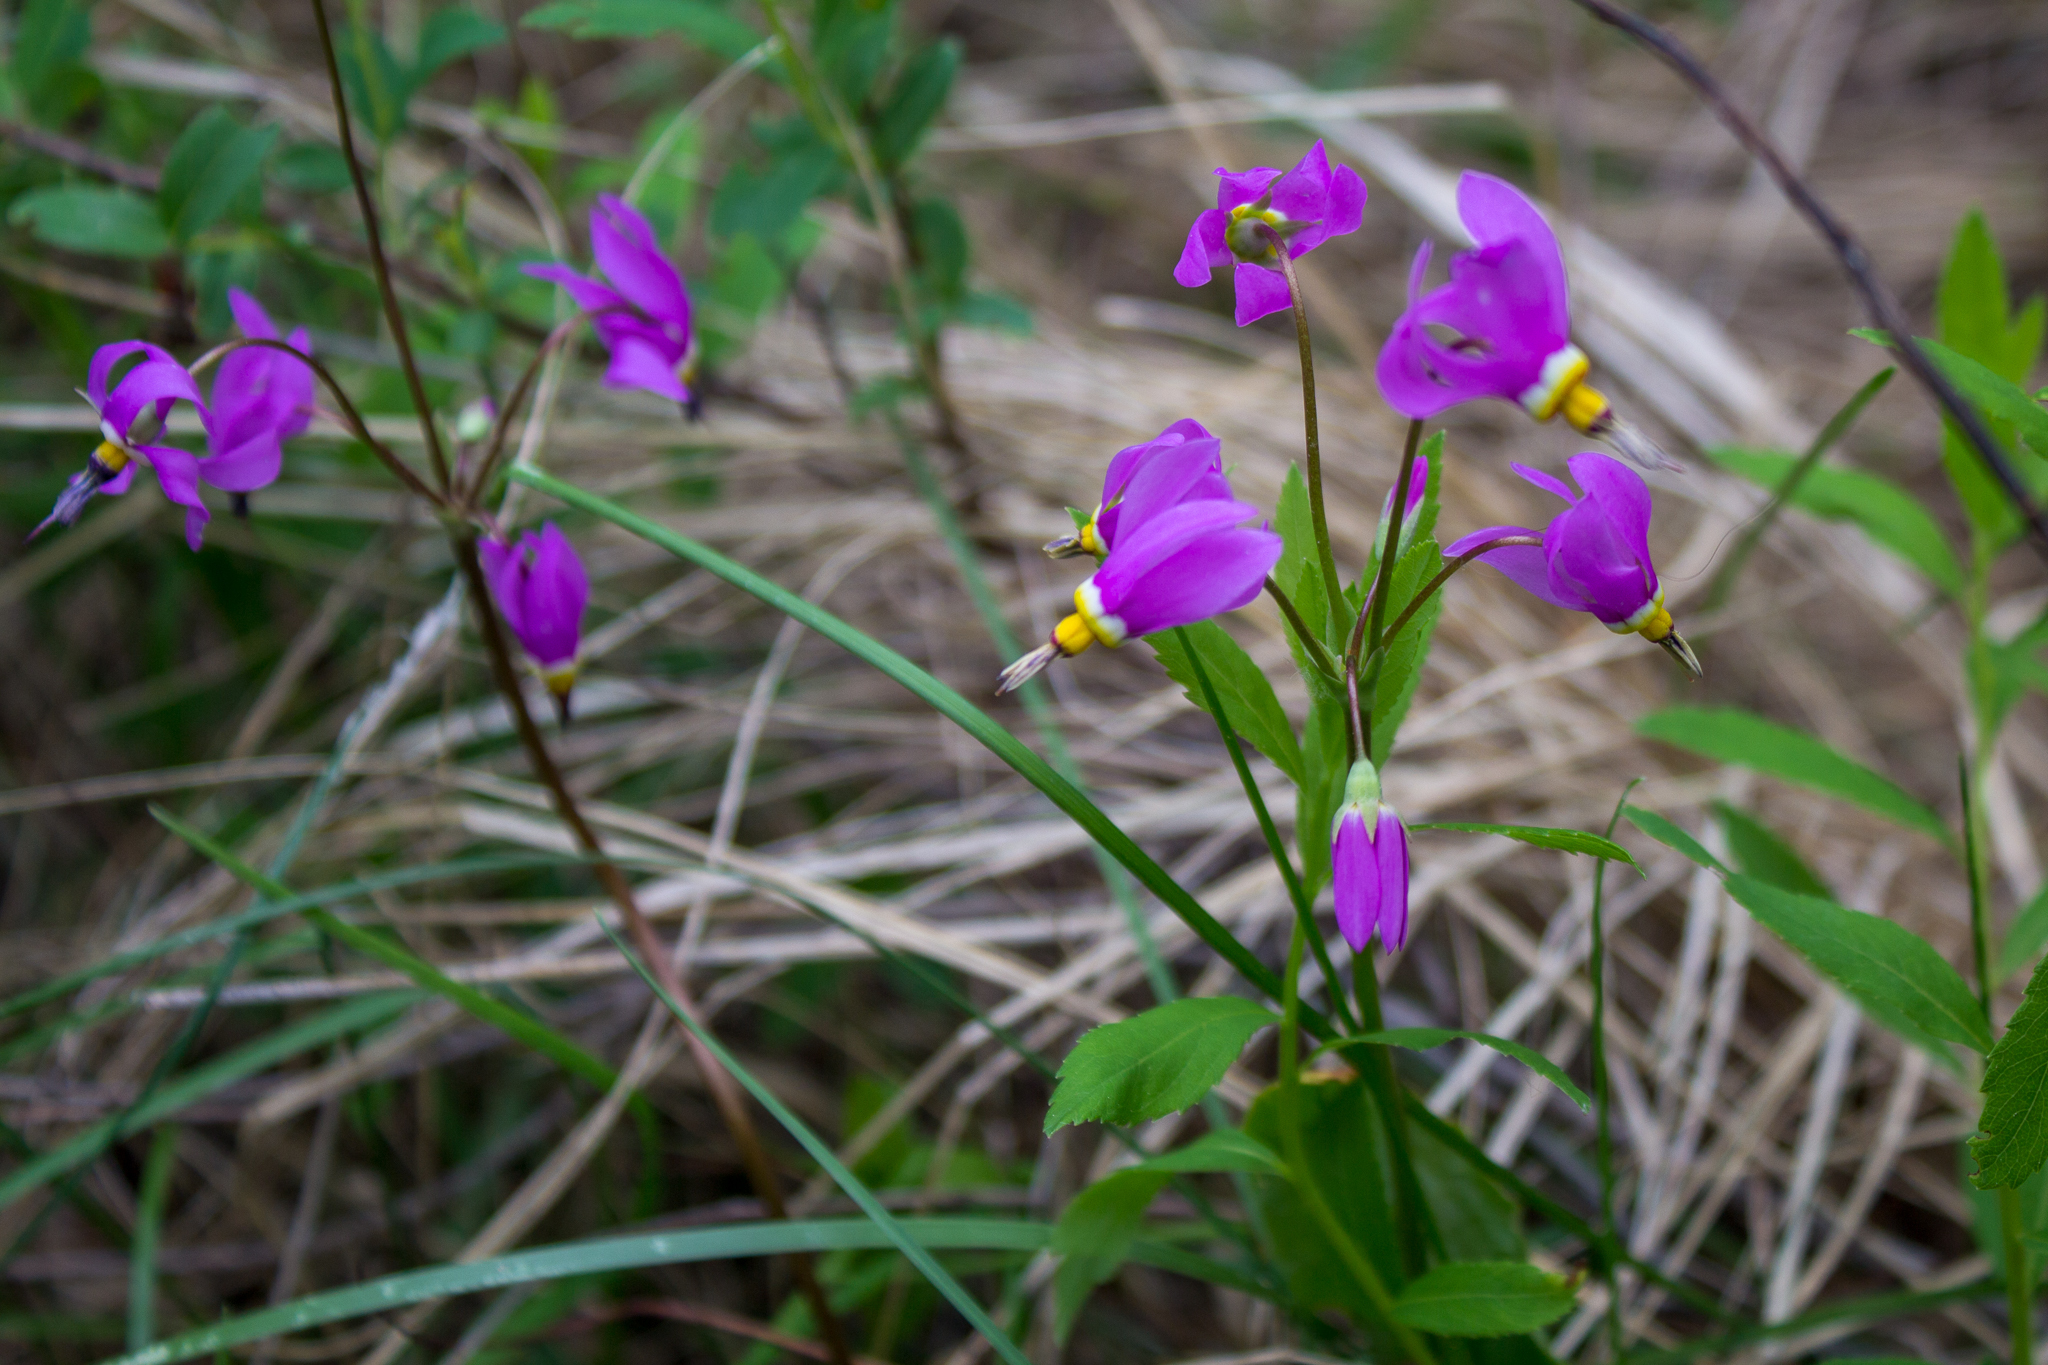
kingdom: Plantae
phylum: Tracheophyta
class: Magnoliopsida
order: Ericales
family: Primulaceae
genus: Dodecatheon
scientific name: Dodecatheon pulchellum
